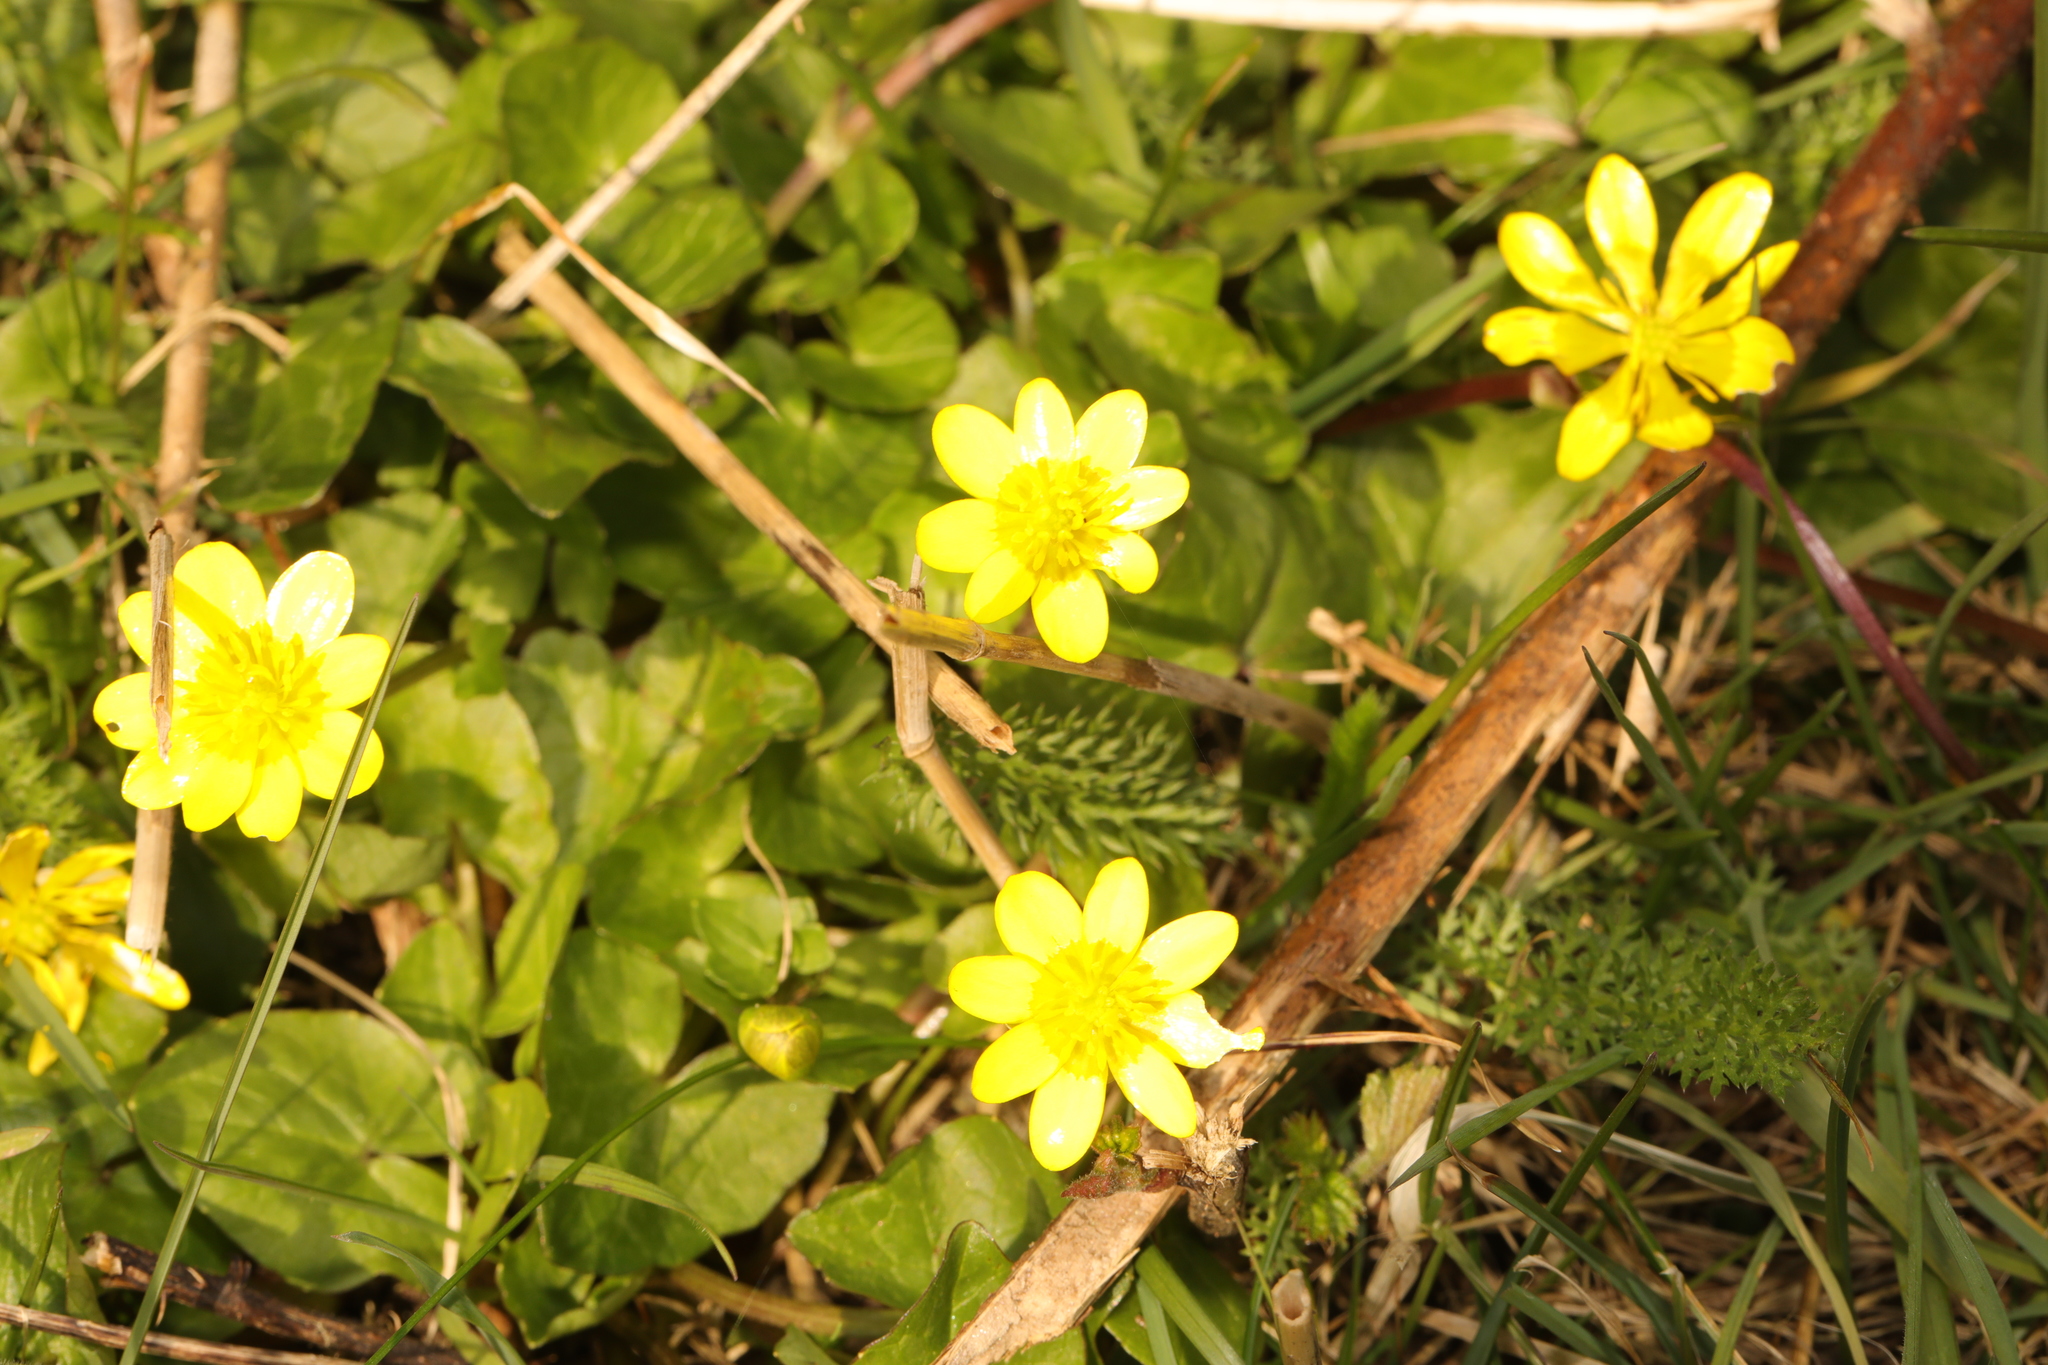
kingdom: Plantae
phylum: Tracheophyta
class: Magnoliopsida
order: Ranunculales
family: Ranunculaceae
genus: Ficaria
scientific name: Ficaria verna
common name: Lesser celandine
